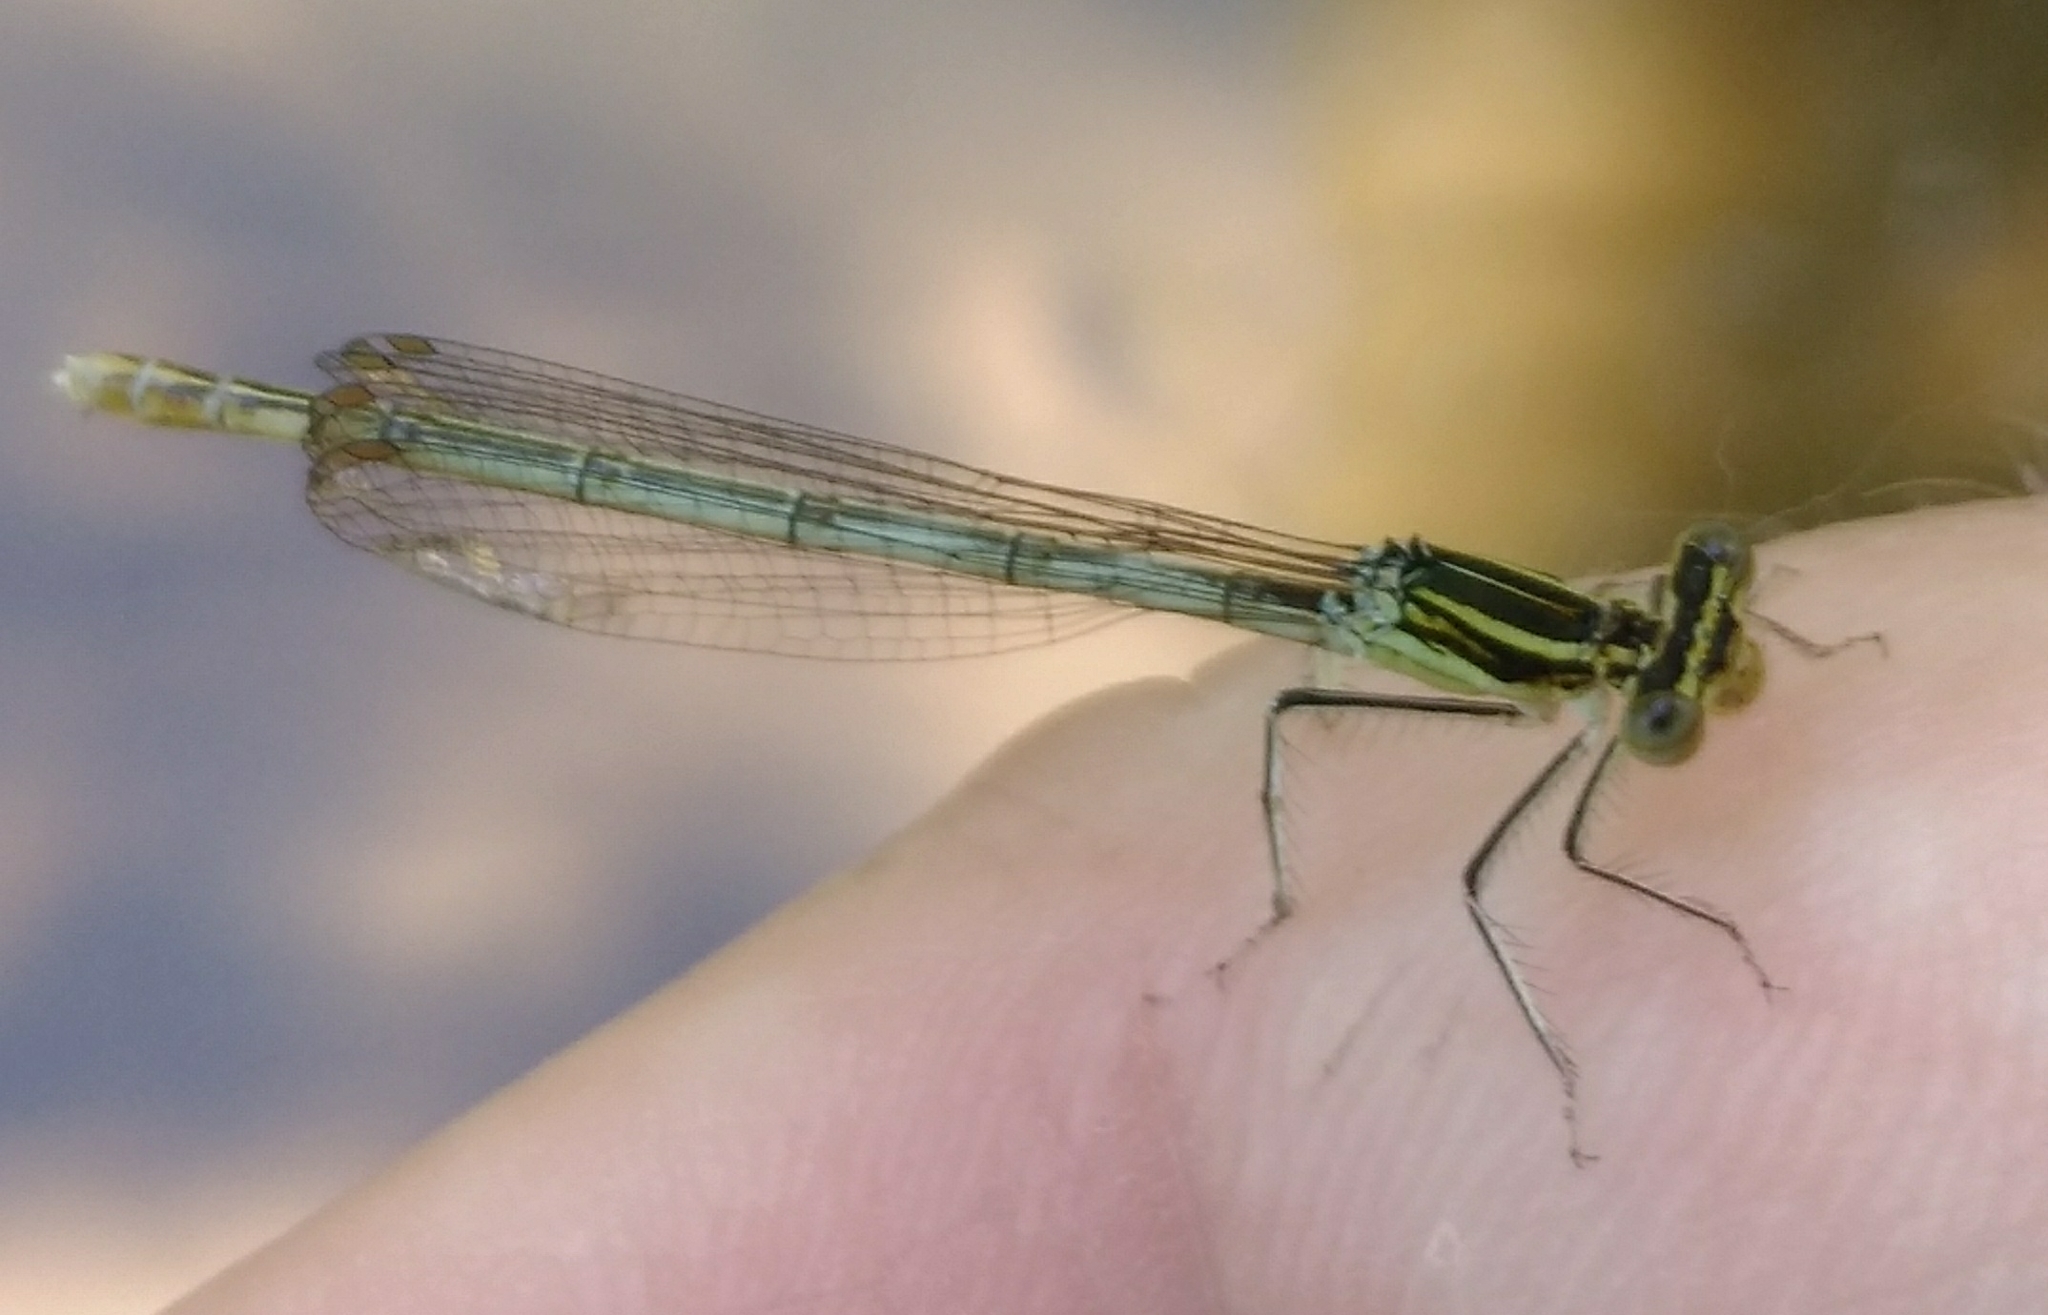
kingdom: Animalia
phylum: Arthropoda
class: Insecta
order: Odonata
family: Platycnemididae
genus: Platycnemis
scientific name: Platycnemis pennipes
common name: White-legged damselfly
